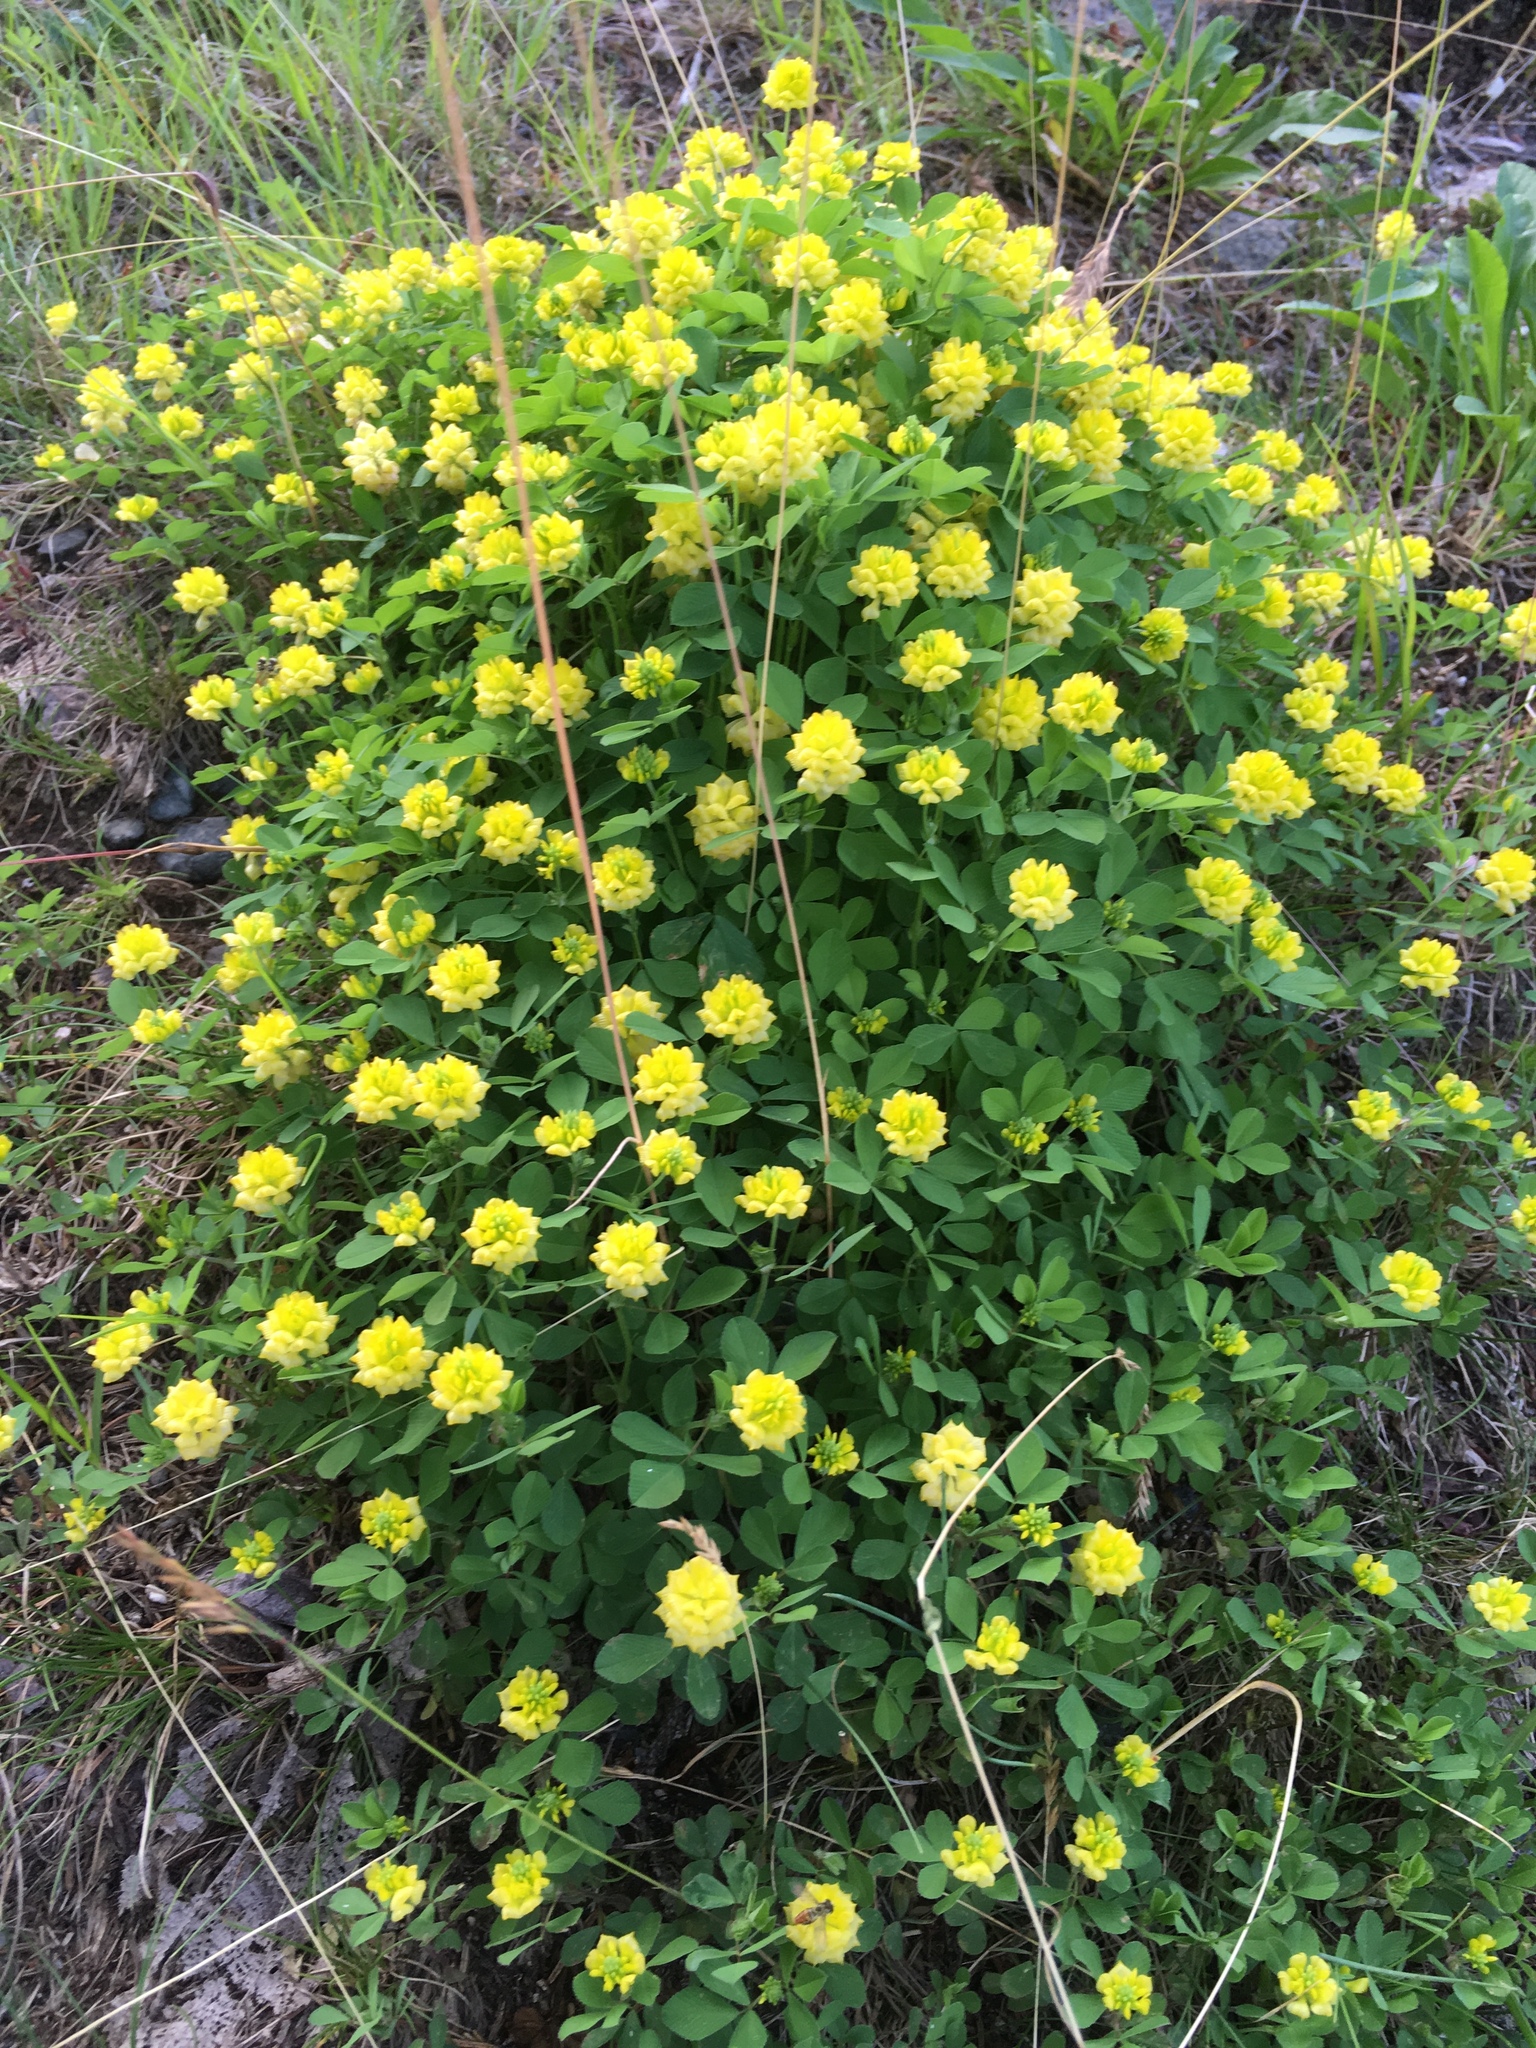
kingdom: Plantae
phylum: Tracheophyta
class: Magnoliopsida
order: Fabales
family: Fabaceae
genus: Trifolium
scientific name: Trifolium campestre
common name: Field clover
